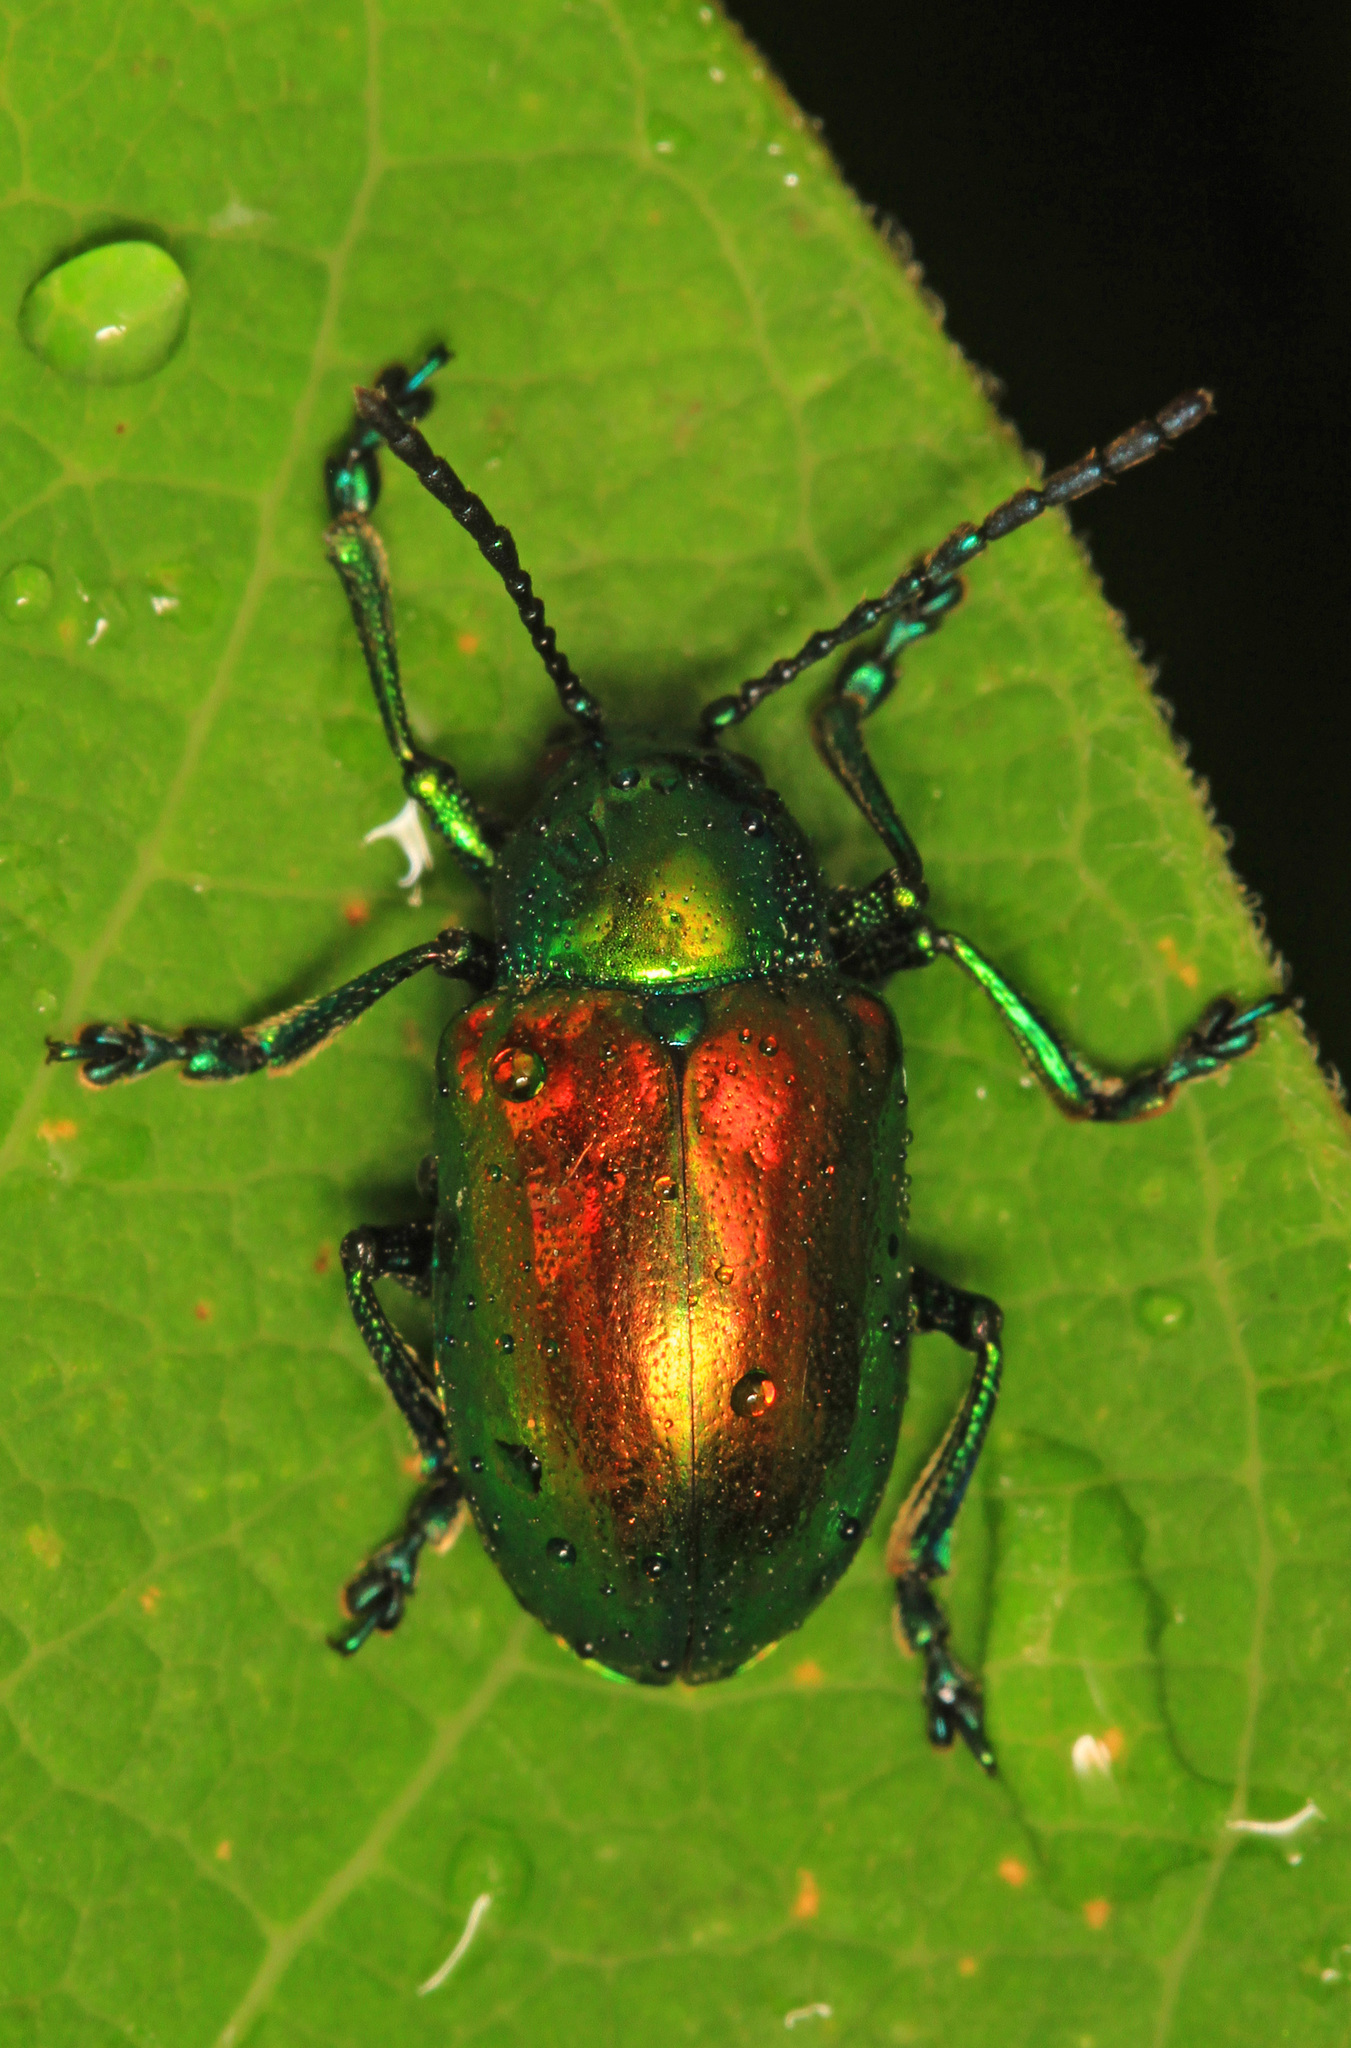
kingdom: Animalia
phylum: Arthropoda
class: Insecta
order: Coleoptera
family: Chrysomelidae
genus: Chrysochus
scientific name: Chrysochus auratus
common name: Dogbane leaf beetle
